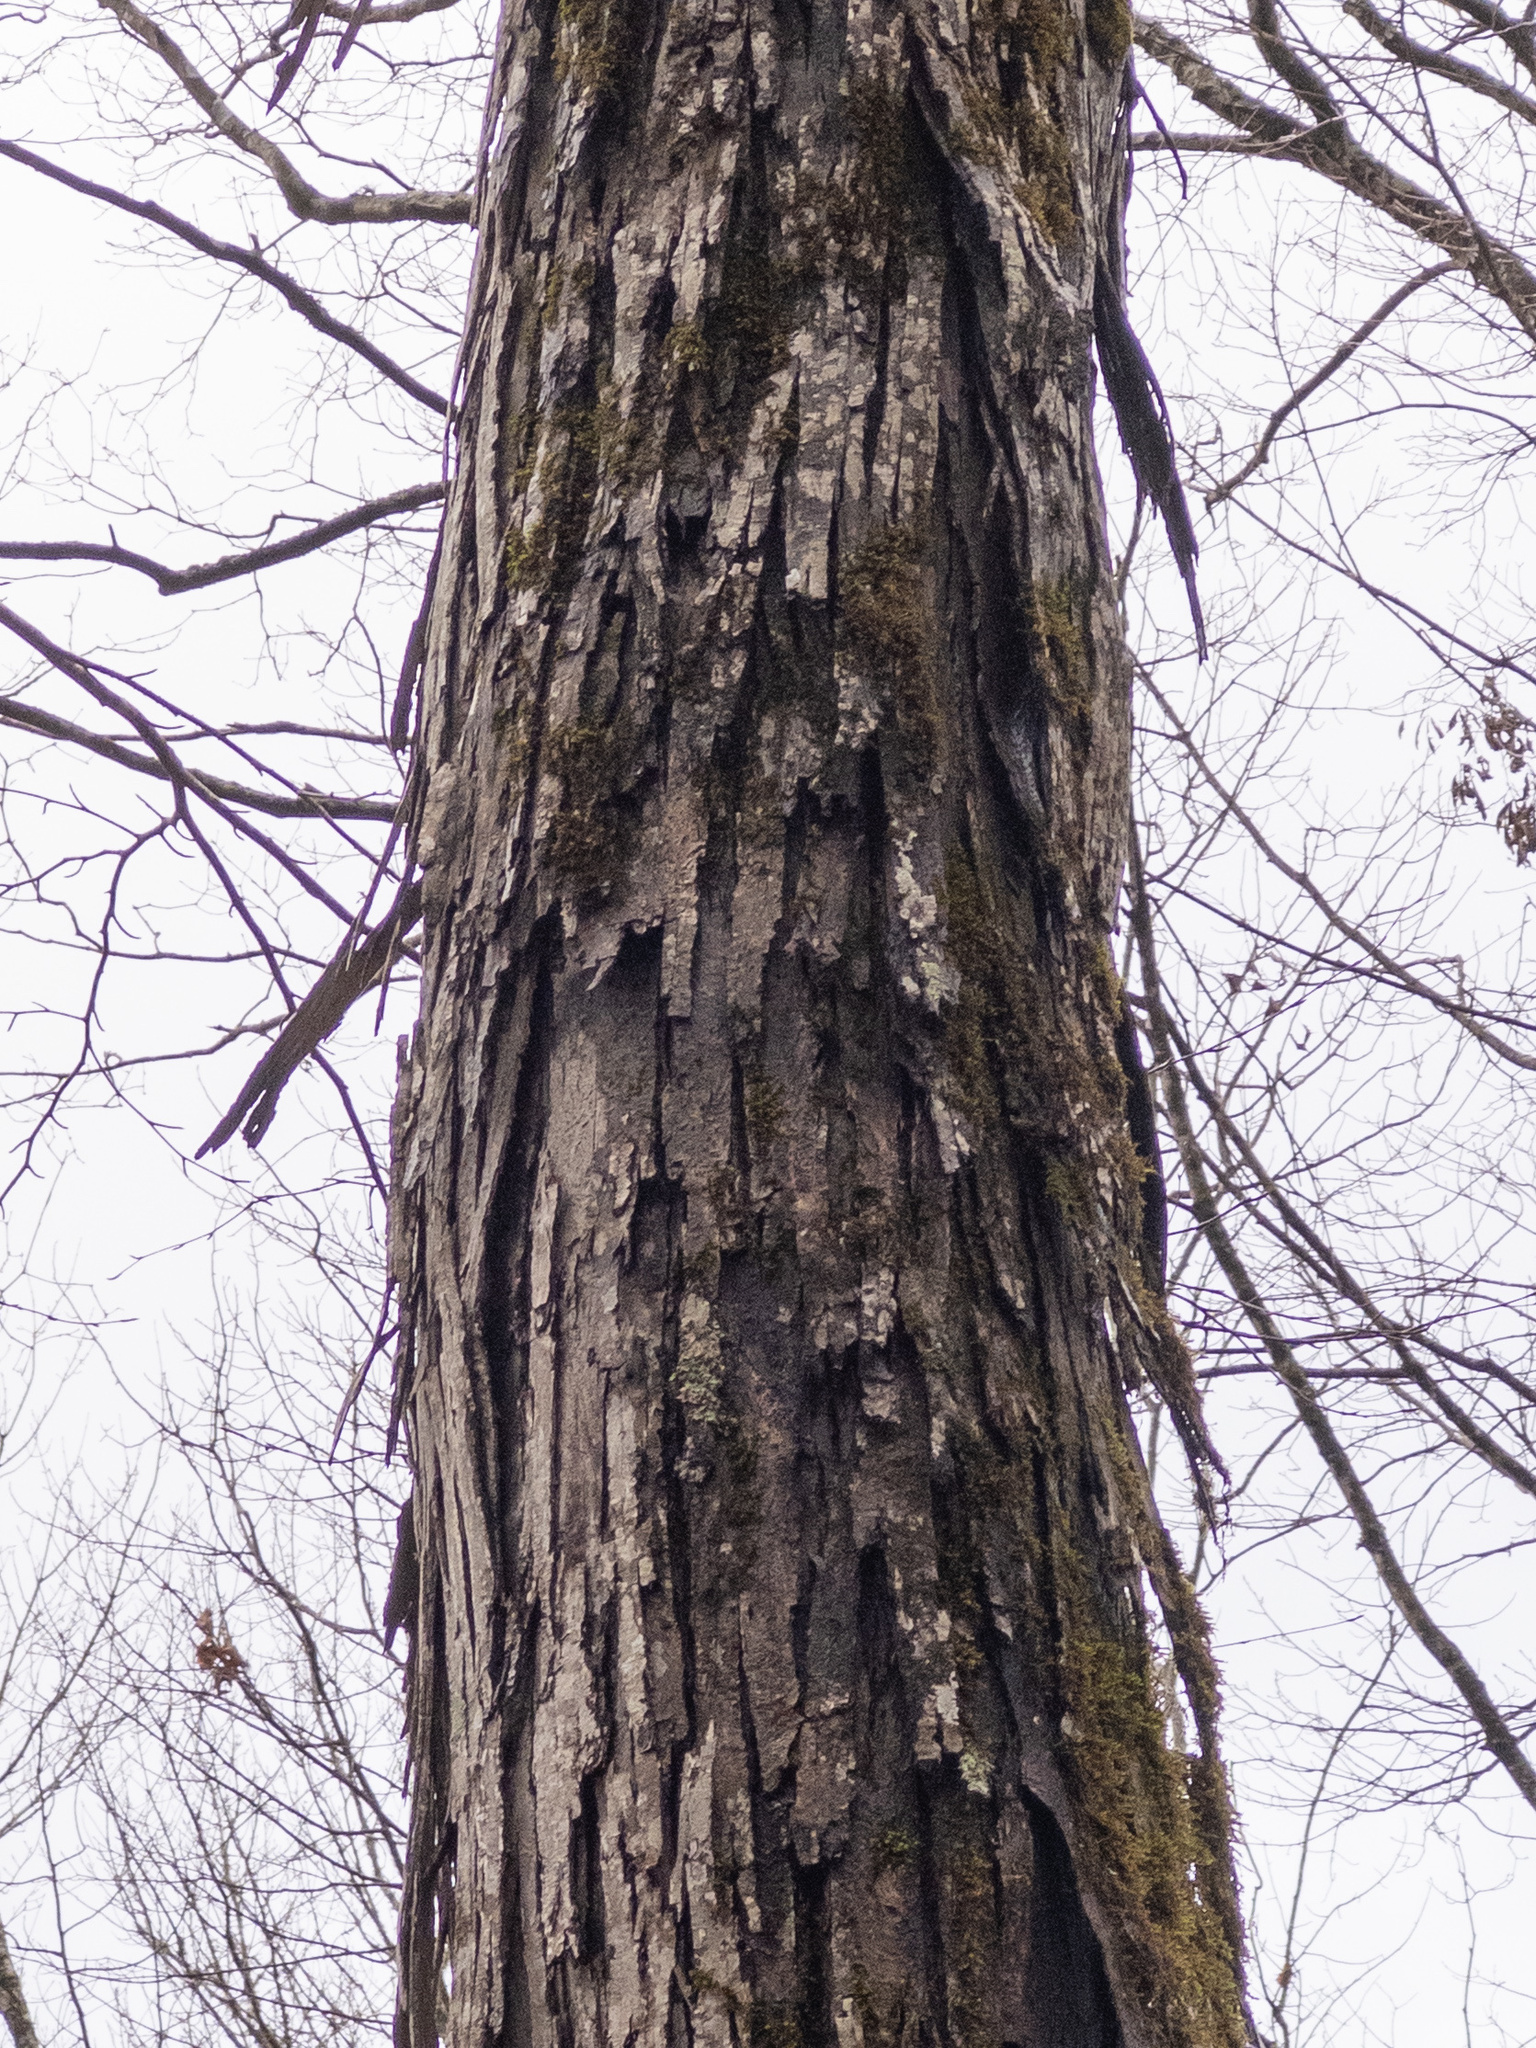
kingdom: Plantae
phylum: Tracheophyta
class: Magnoliopsida
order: Fagales
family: Juglandaceae
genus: Carya
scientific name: Carya ovata
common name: Shagbark hickory
